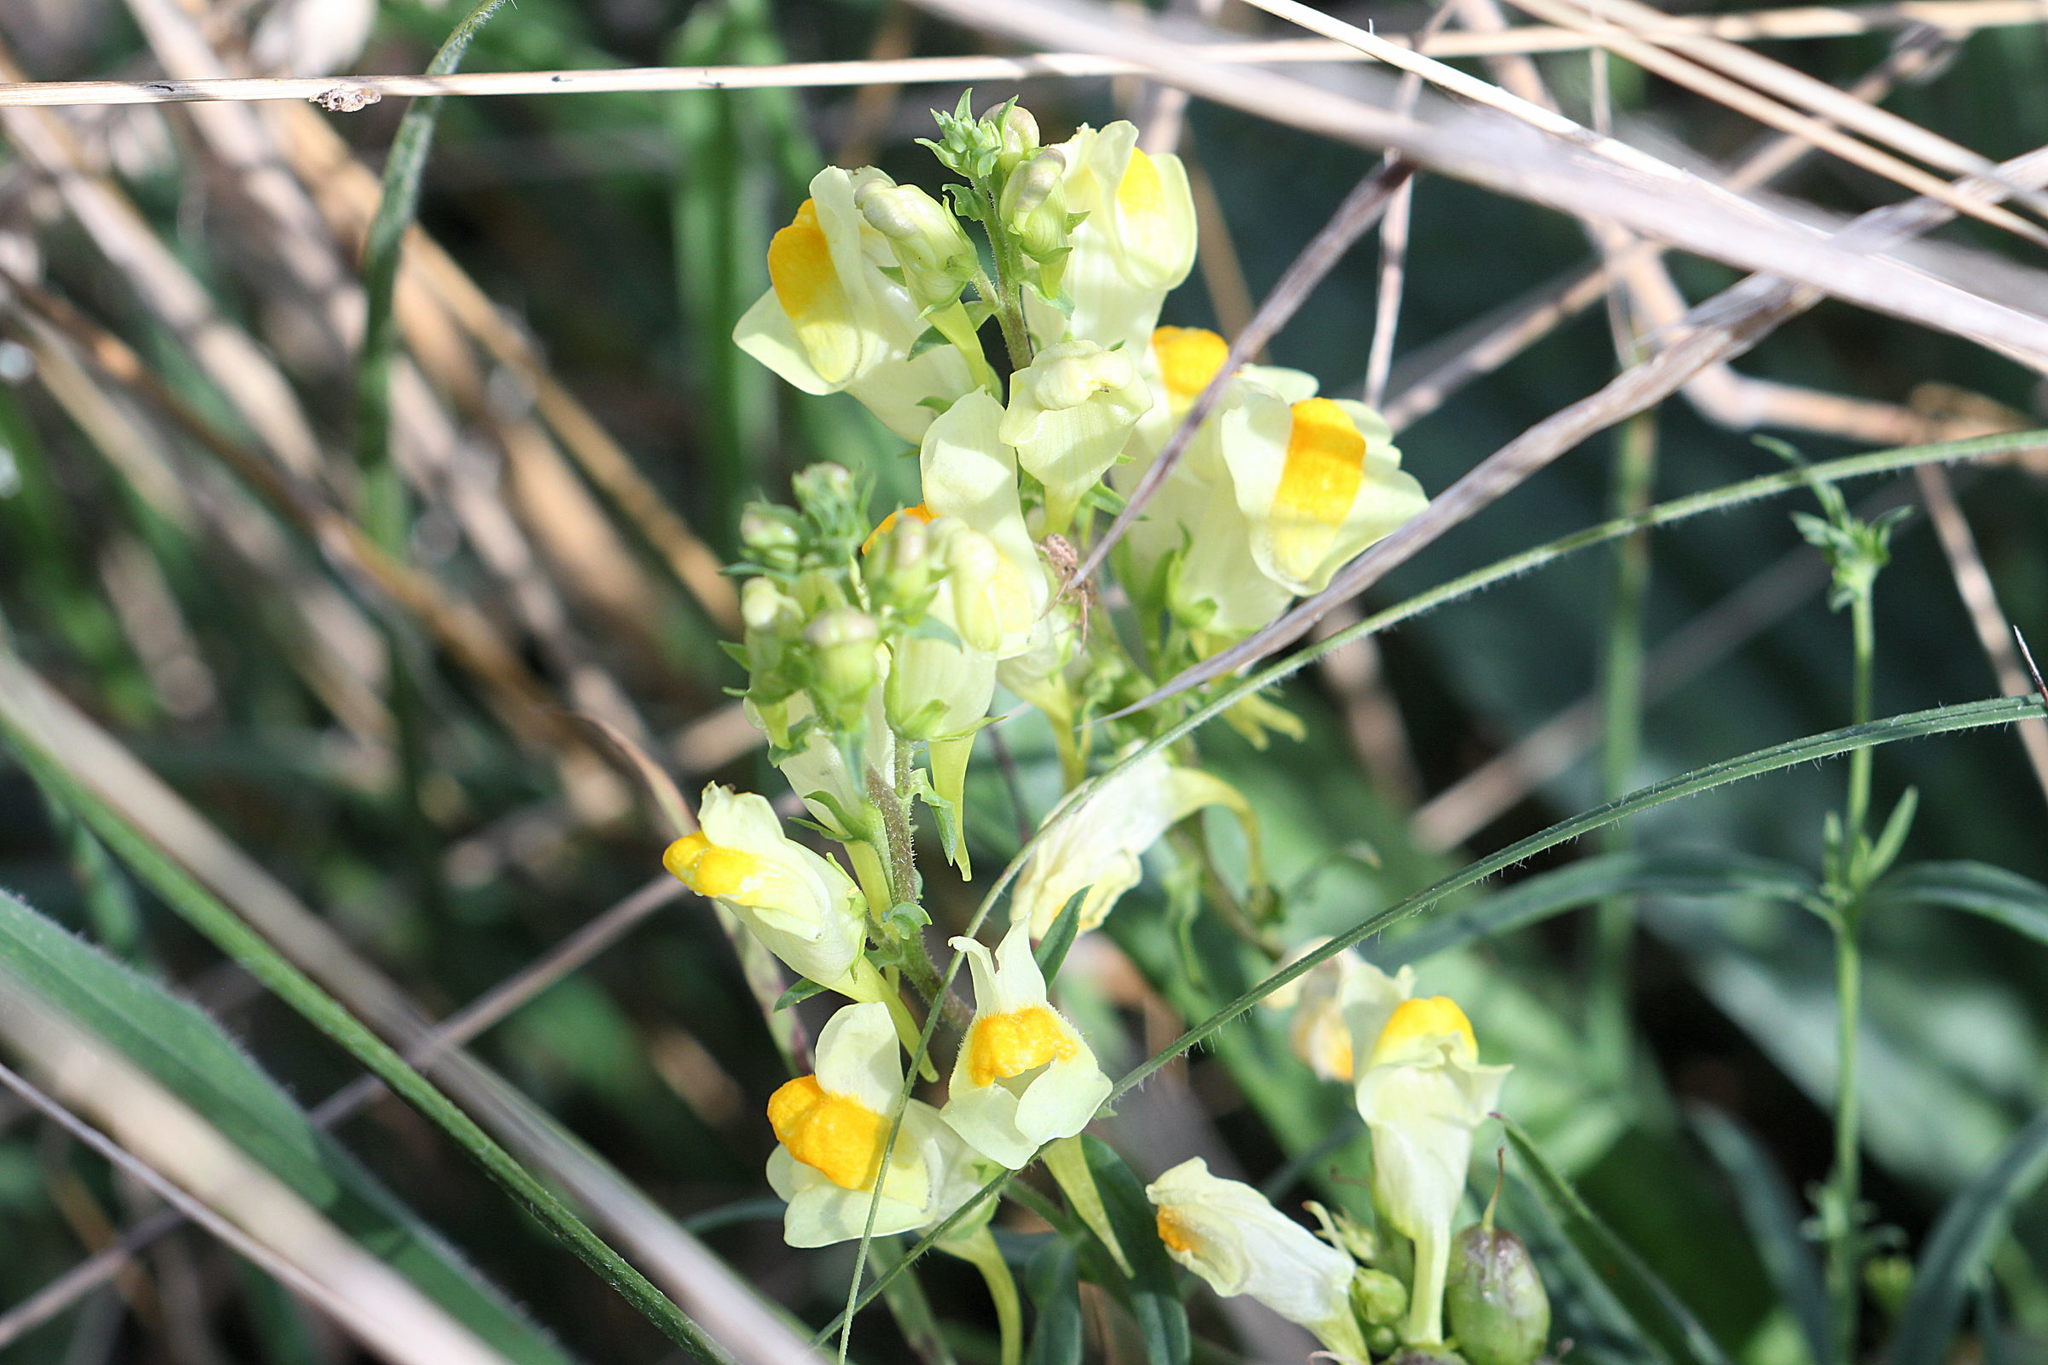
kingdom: Plantae
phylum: Tracheophyta
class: Magnoliopsida
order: Lamiales
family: Plantaginaceae
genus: Linaria
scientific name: Linaria vulgaris
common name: Butter and eggs
